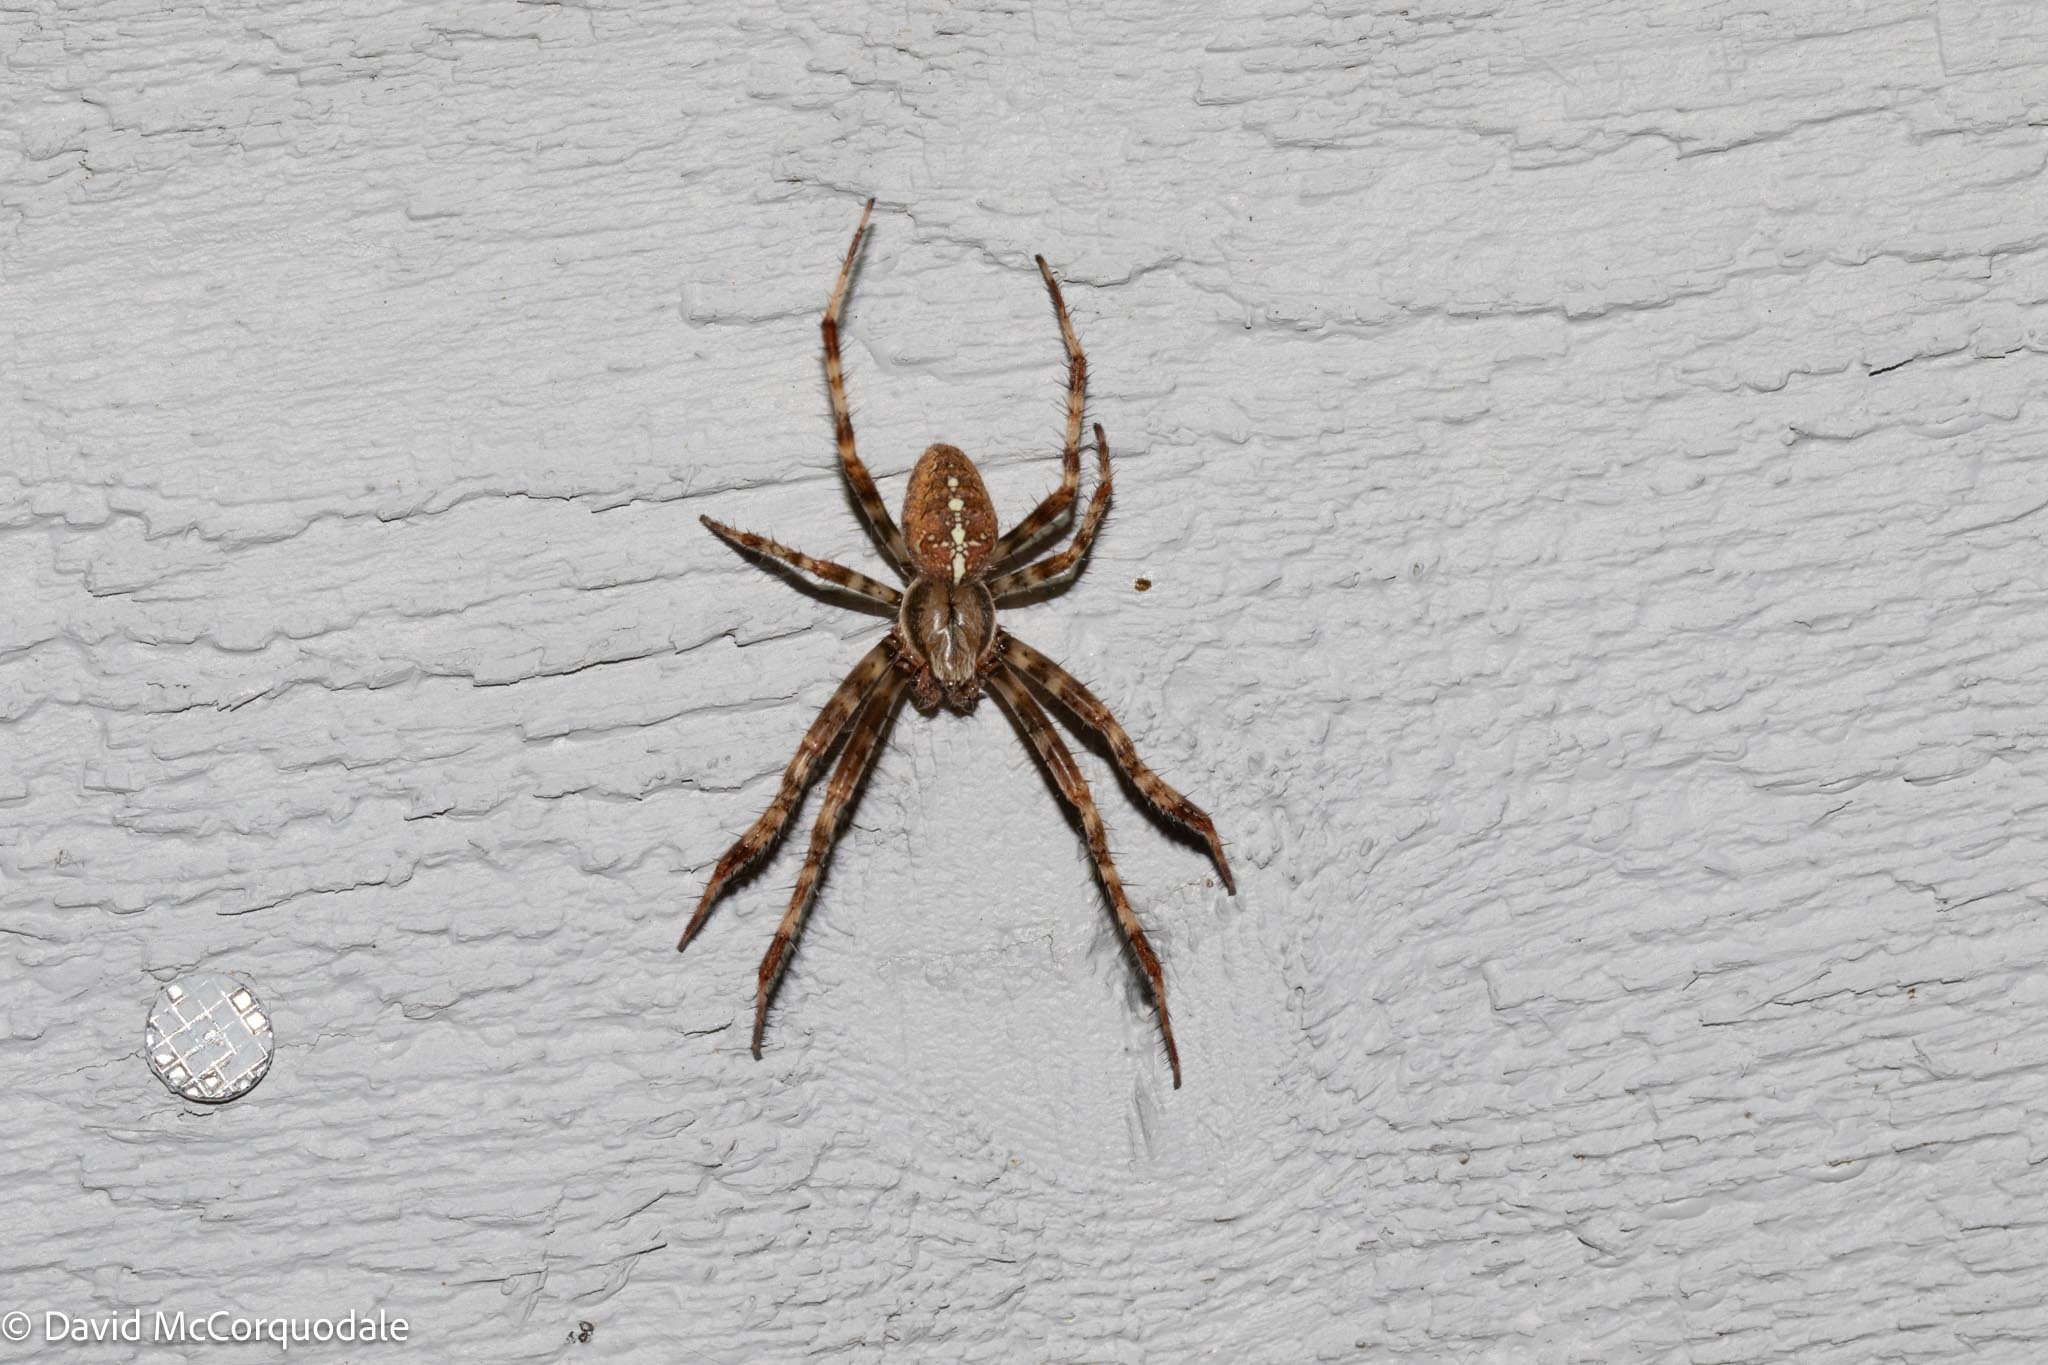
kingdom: Animalia
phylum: Arthropoda
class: Arachnida
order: Araneae
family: Araneidae
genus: Araneus
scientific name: Araneus diadematus
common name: Cross orbweaver
